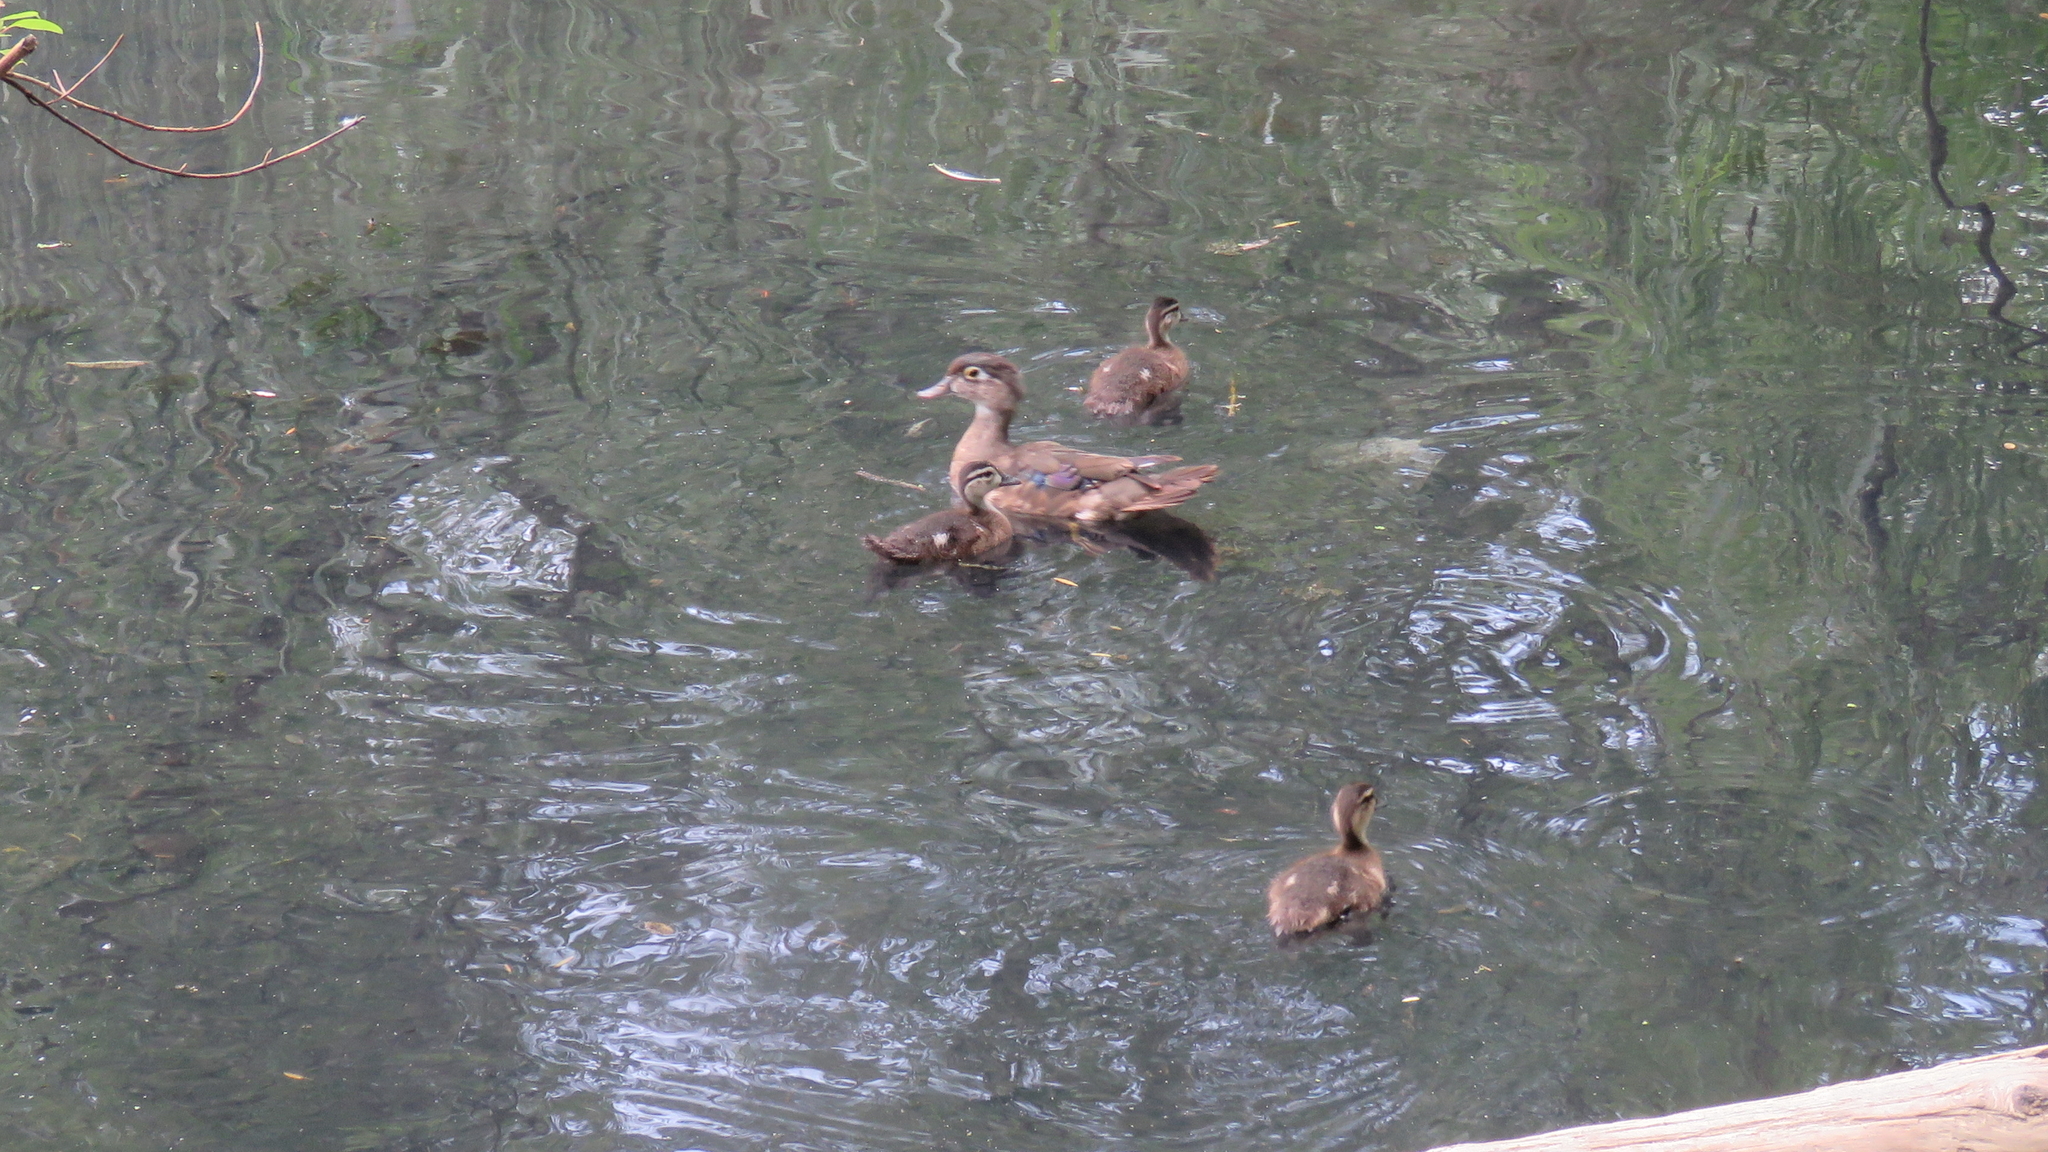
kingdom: Animalia
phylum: Chordata
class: Aves
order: Anseriformes
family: Anatidae
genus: Aix
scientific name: Aix sponsa
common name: Wood duck
